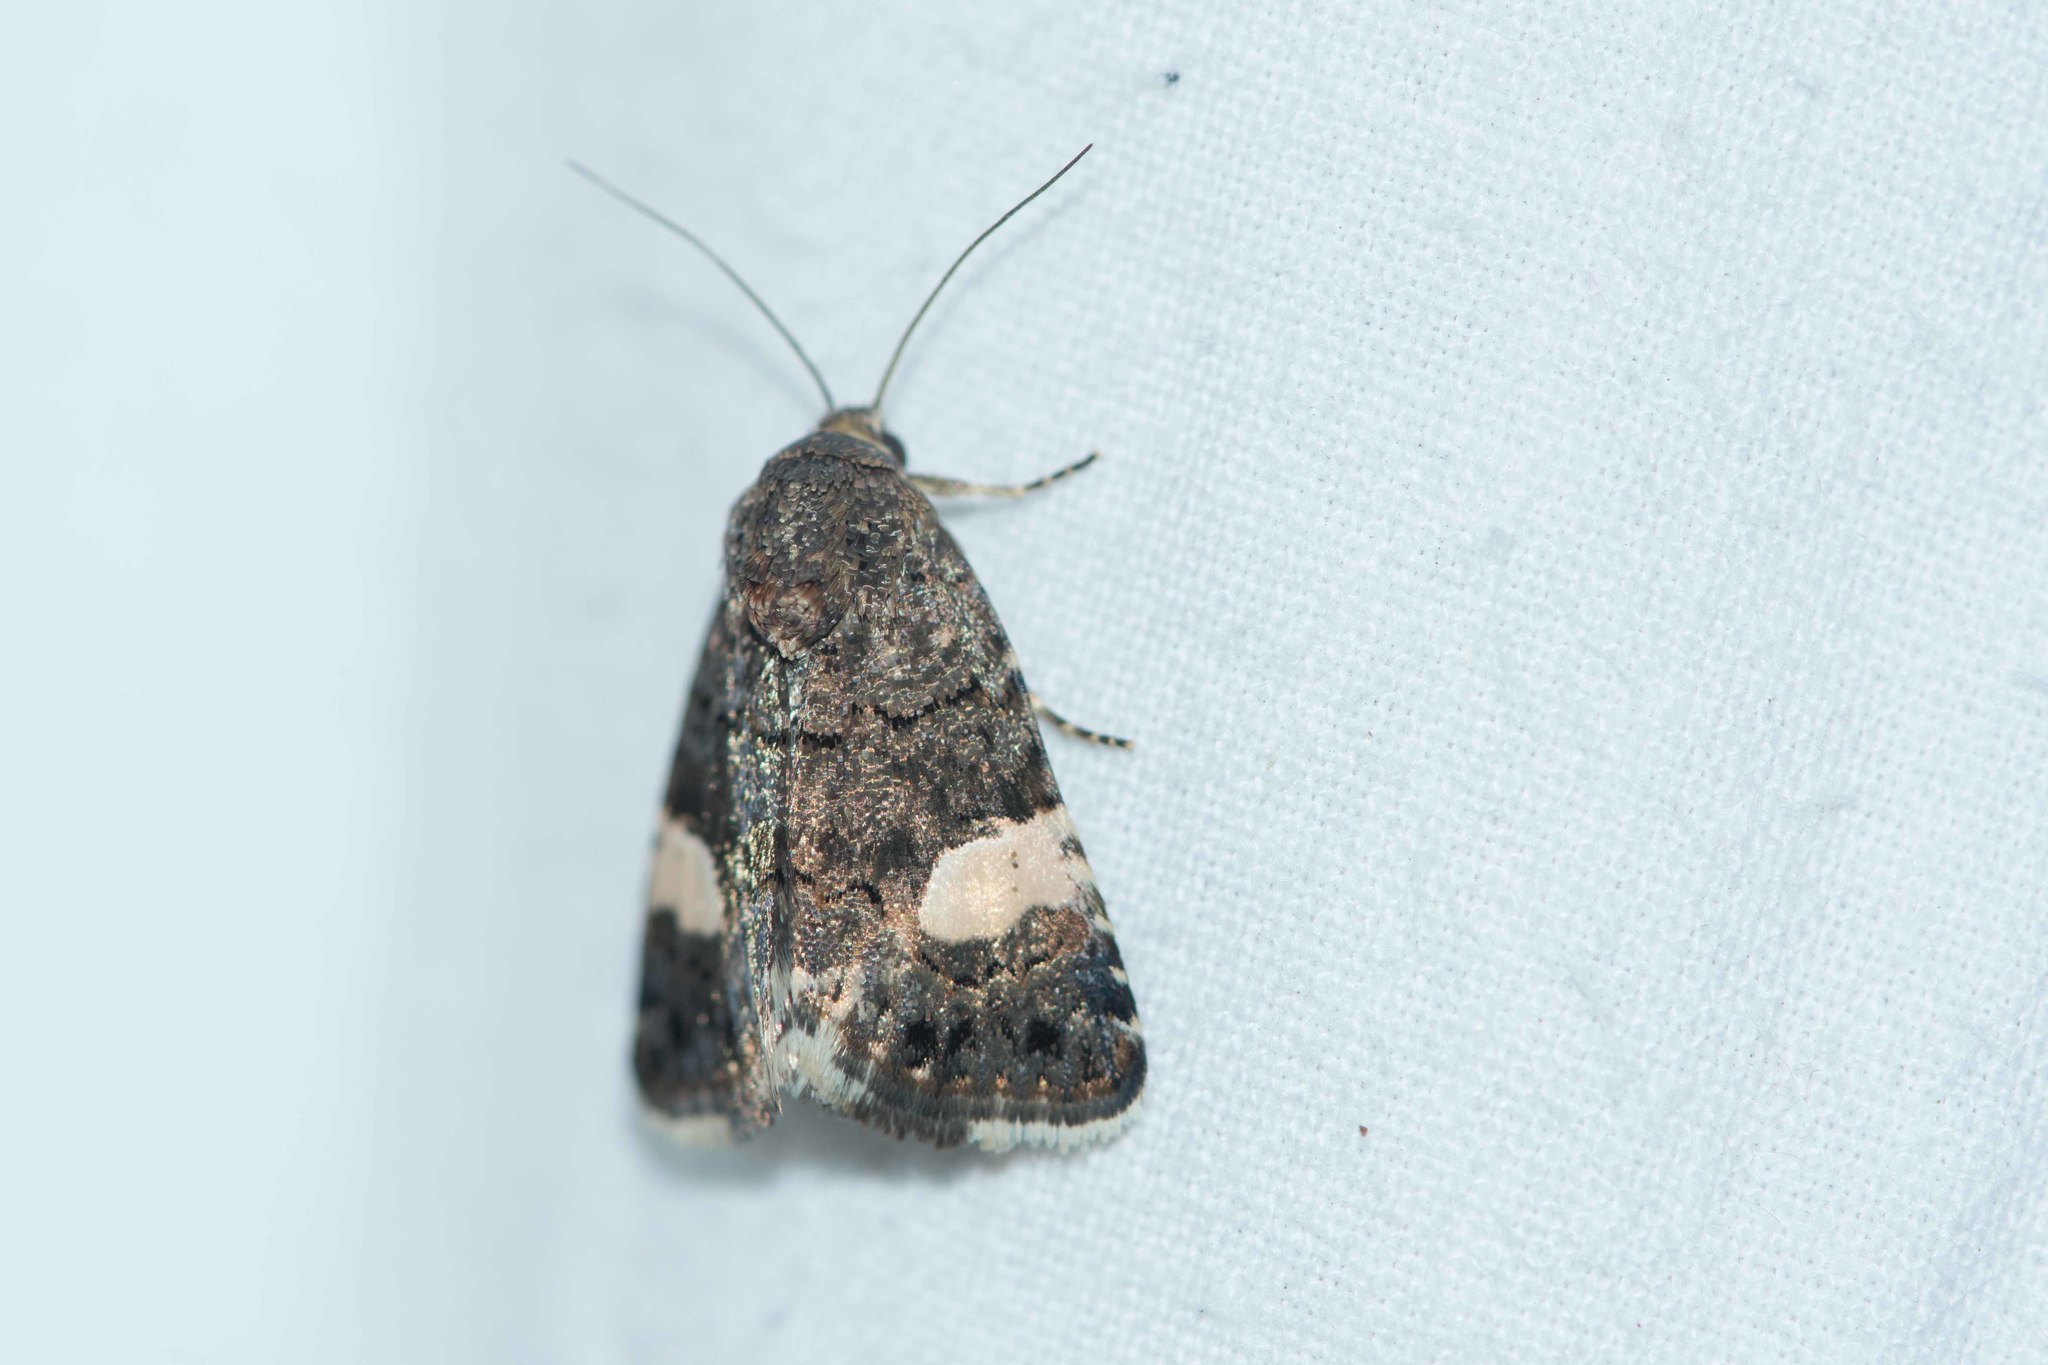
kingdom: Animalia
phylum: Arthropoda
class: Insecta
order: Lepidoptera
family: Erebidae
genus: Tyta
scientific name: Tyta luctuosa
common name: Four-spotted
